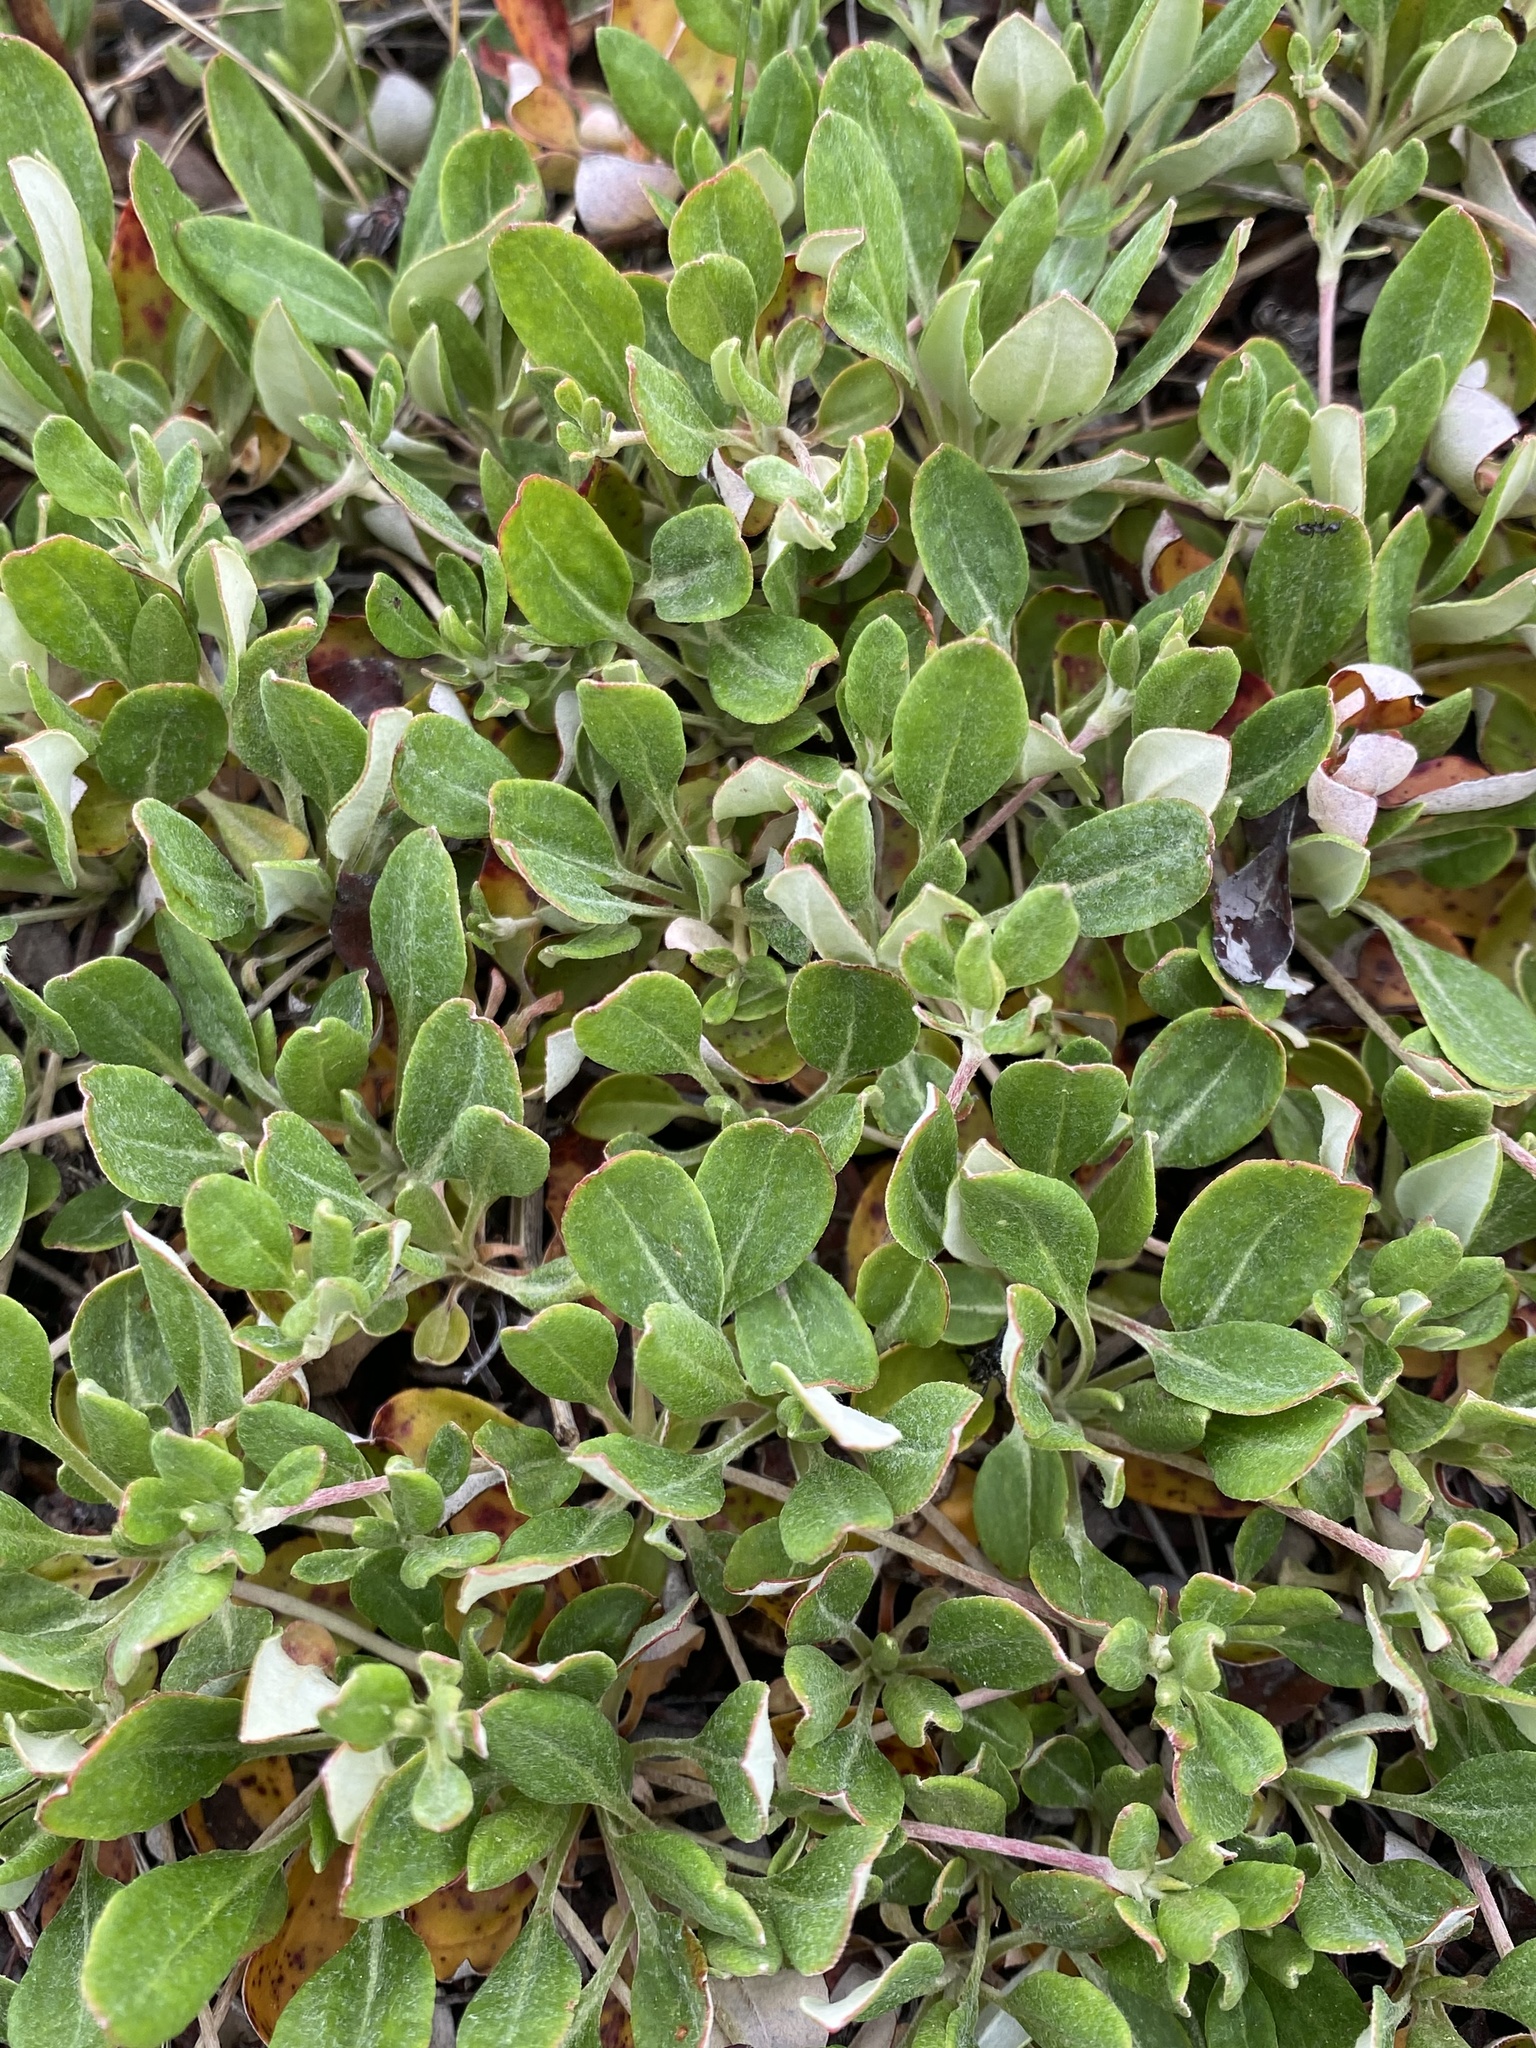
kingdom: Plantae
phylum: Tracheophyta
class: Magnoliopsida
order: Caryophyllales
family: Polygonaceae
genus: Eriogonum
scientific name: Eriogonum umbellatum
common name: Sulfur-buckwheat
